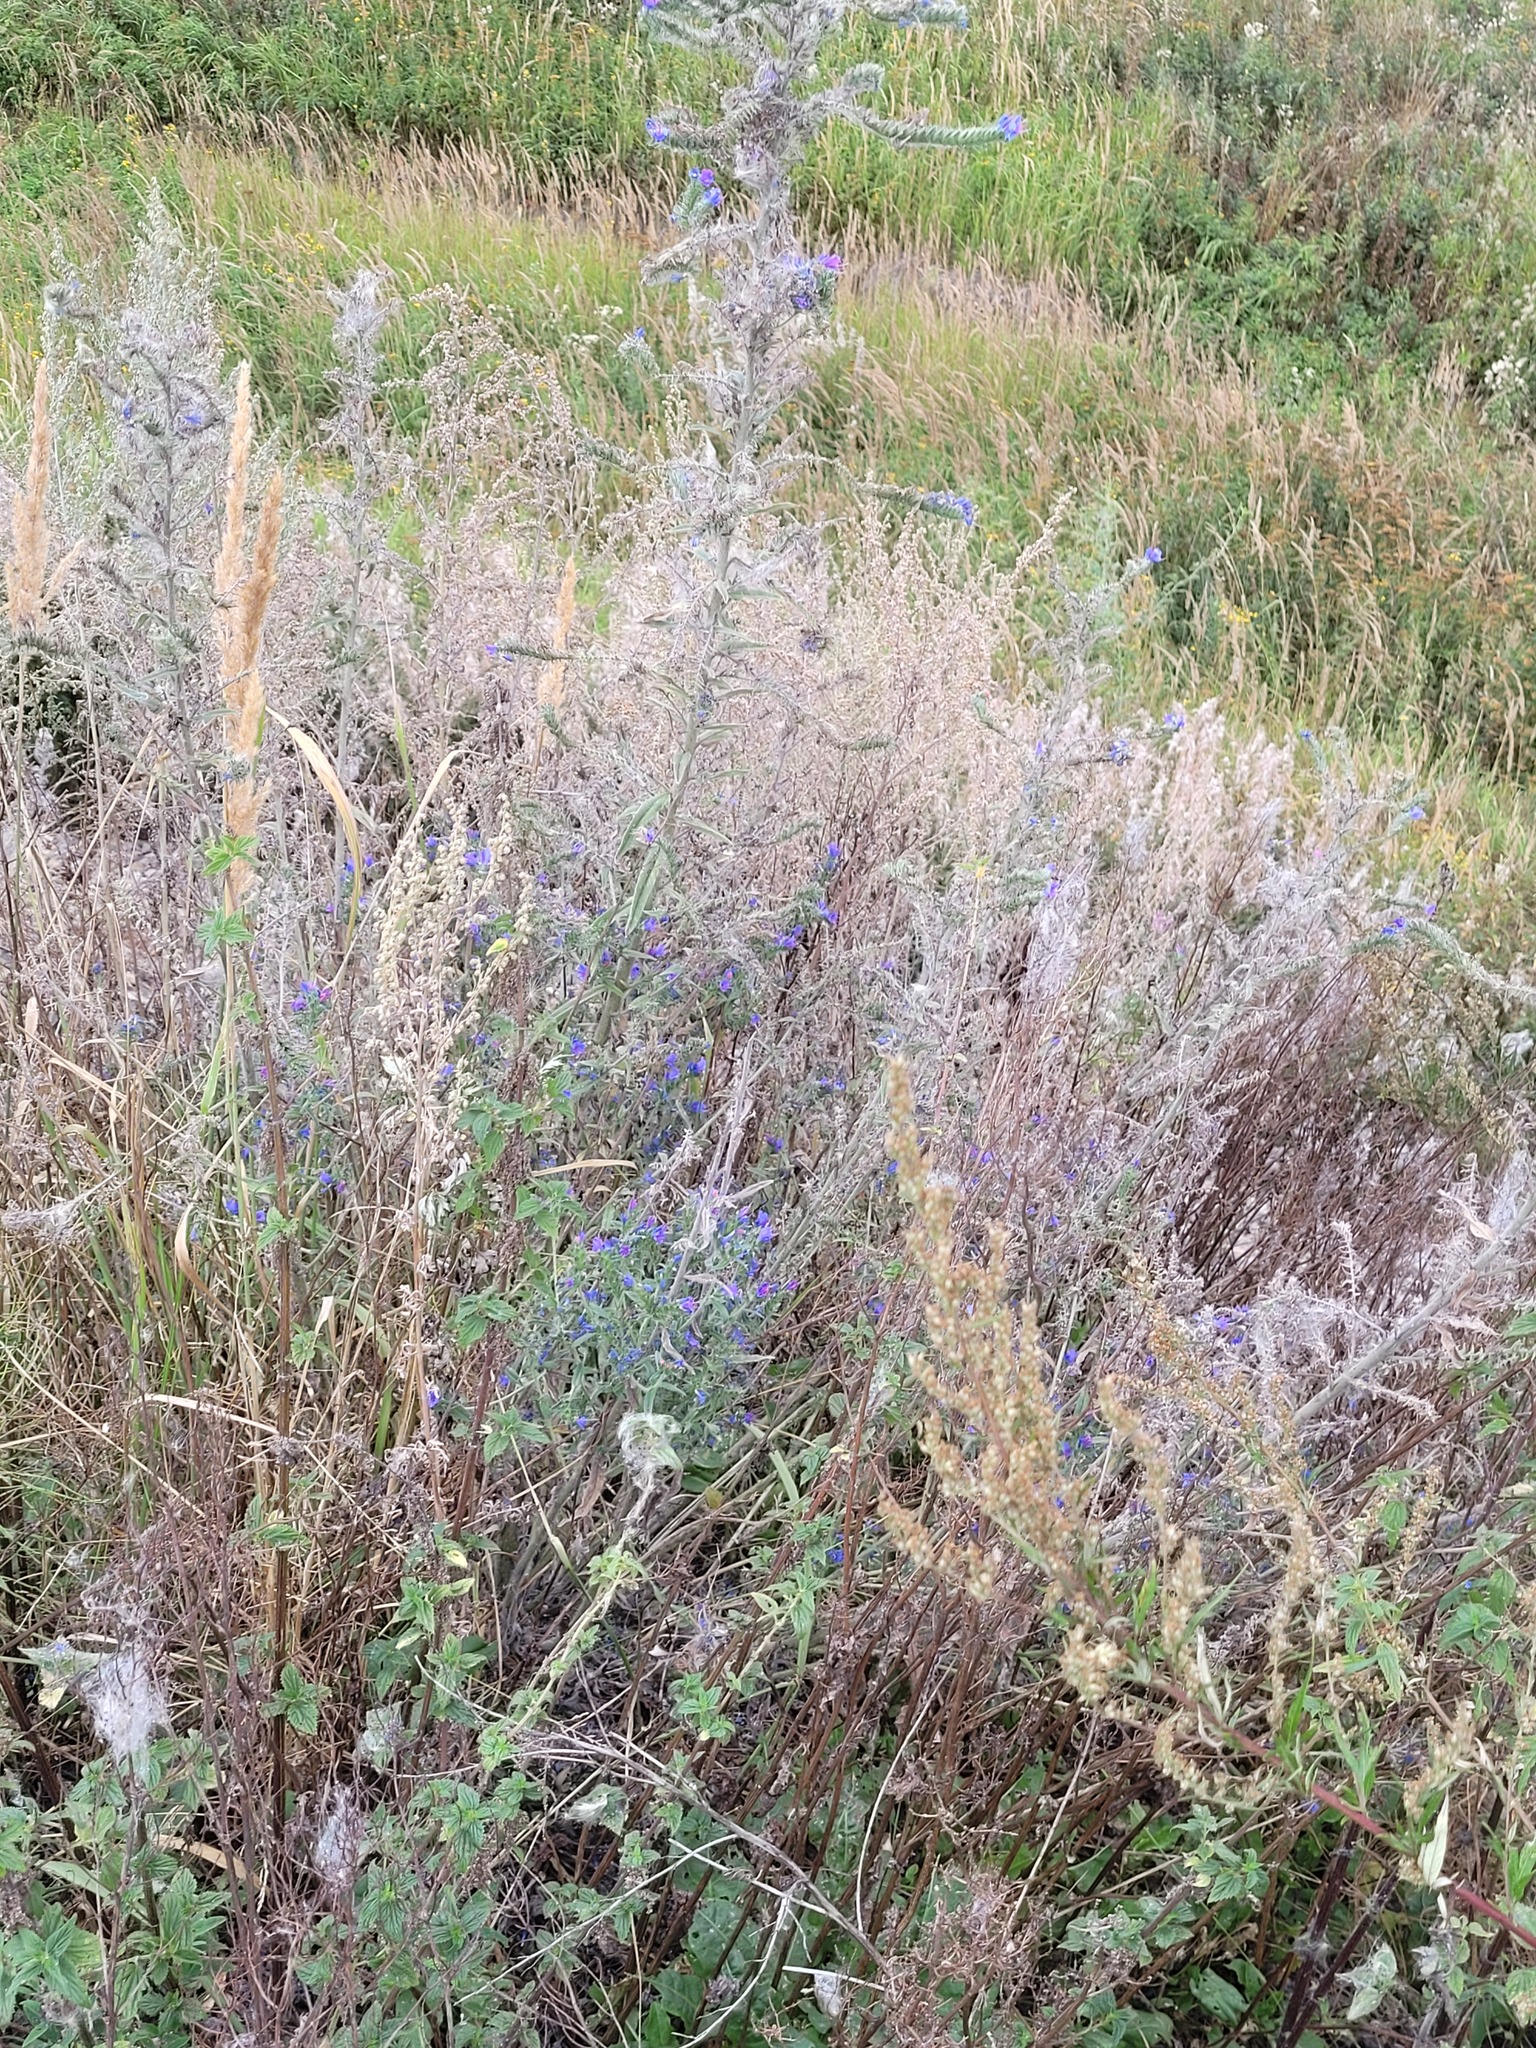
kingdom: Plantae
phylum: Tracheophyta
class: Magnoliopsida
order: Boraginales
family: Boraginaceae
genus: Echium
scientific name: Echium vulgare
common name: Common viper's bugloss
